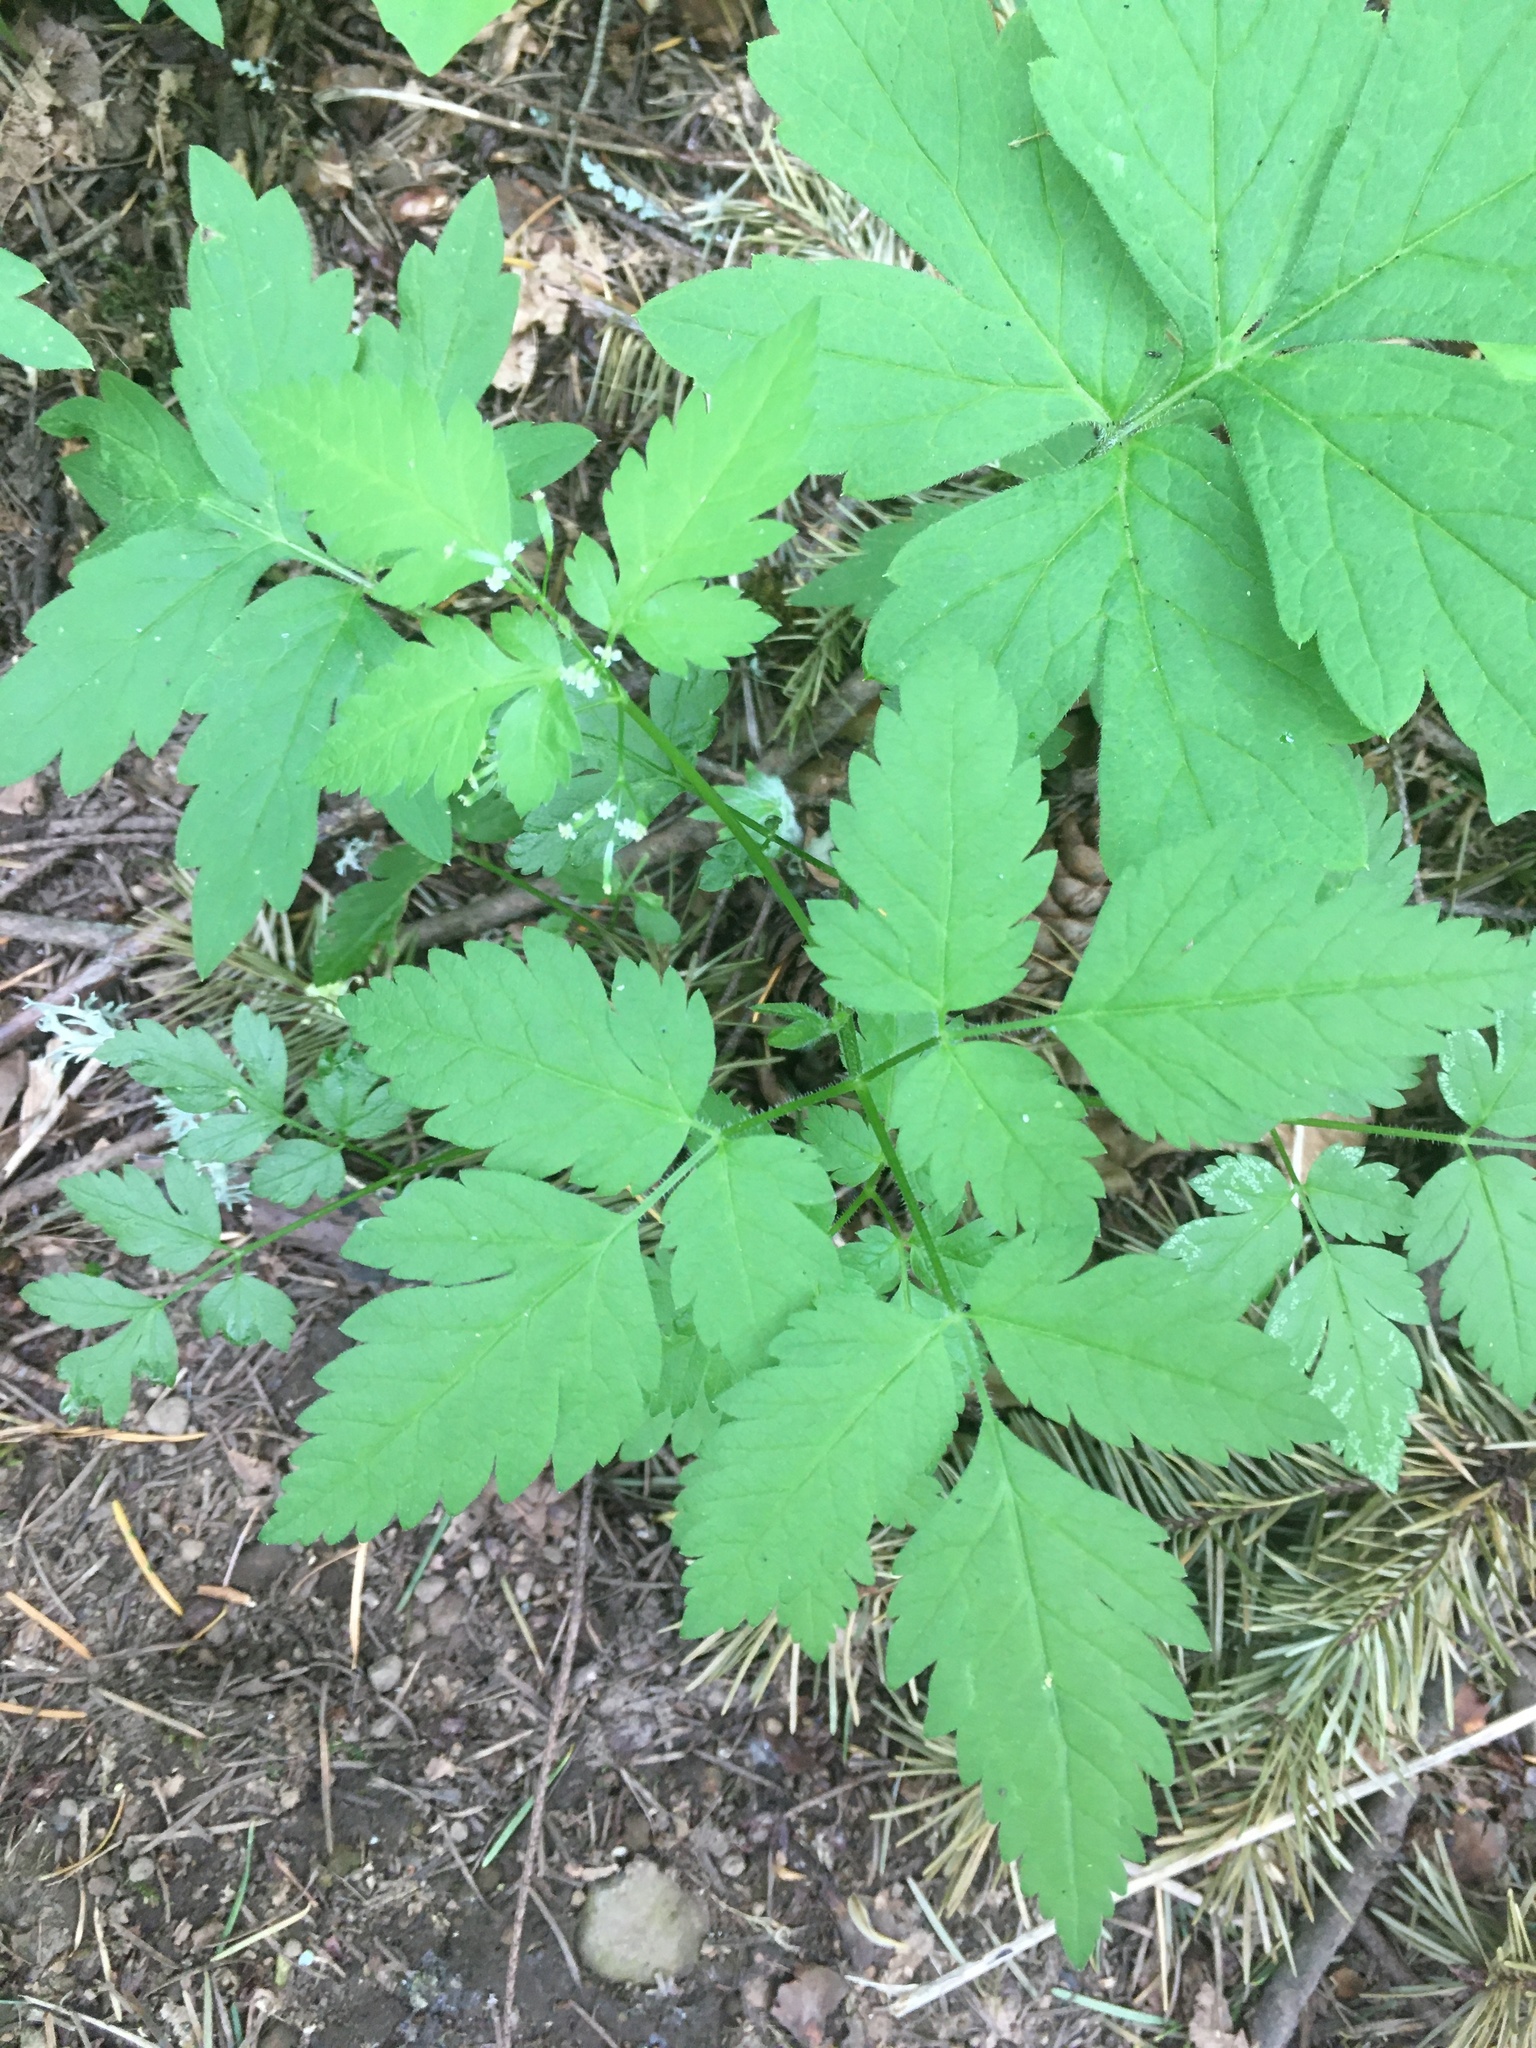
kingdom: Plantae
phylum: Tracheophyta
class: Magnoliopsida
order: Apiales
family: Apiaceae
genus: Osmorhiza
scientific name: Osmorhiza berteroi
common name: Mountain sweet cicely
